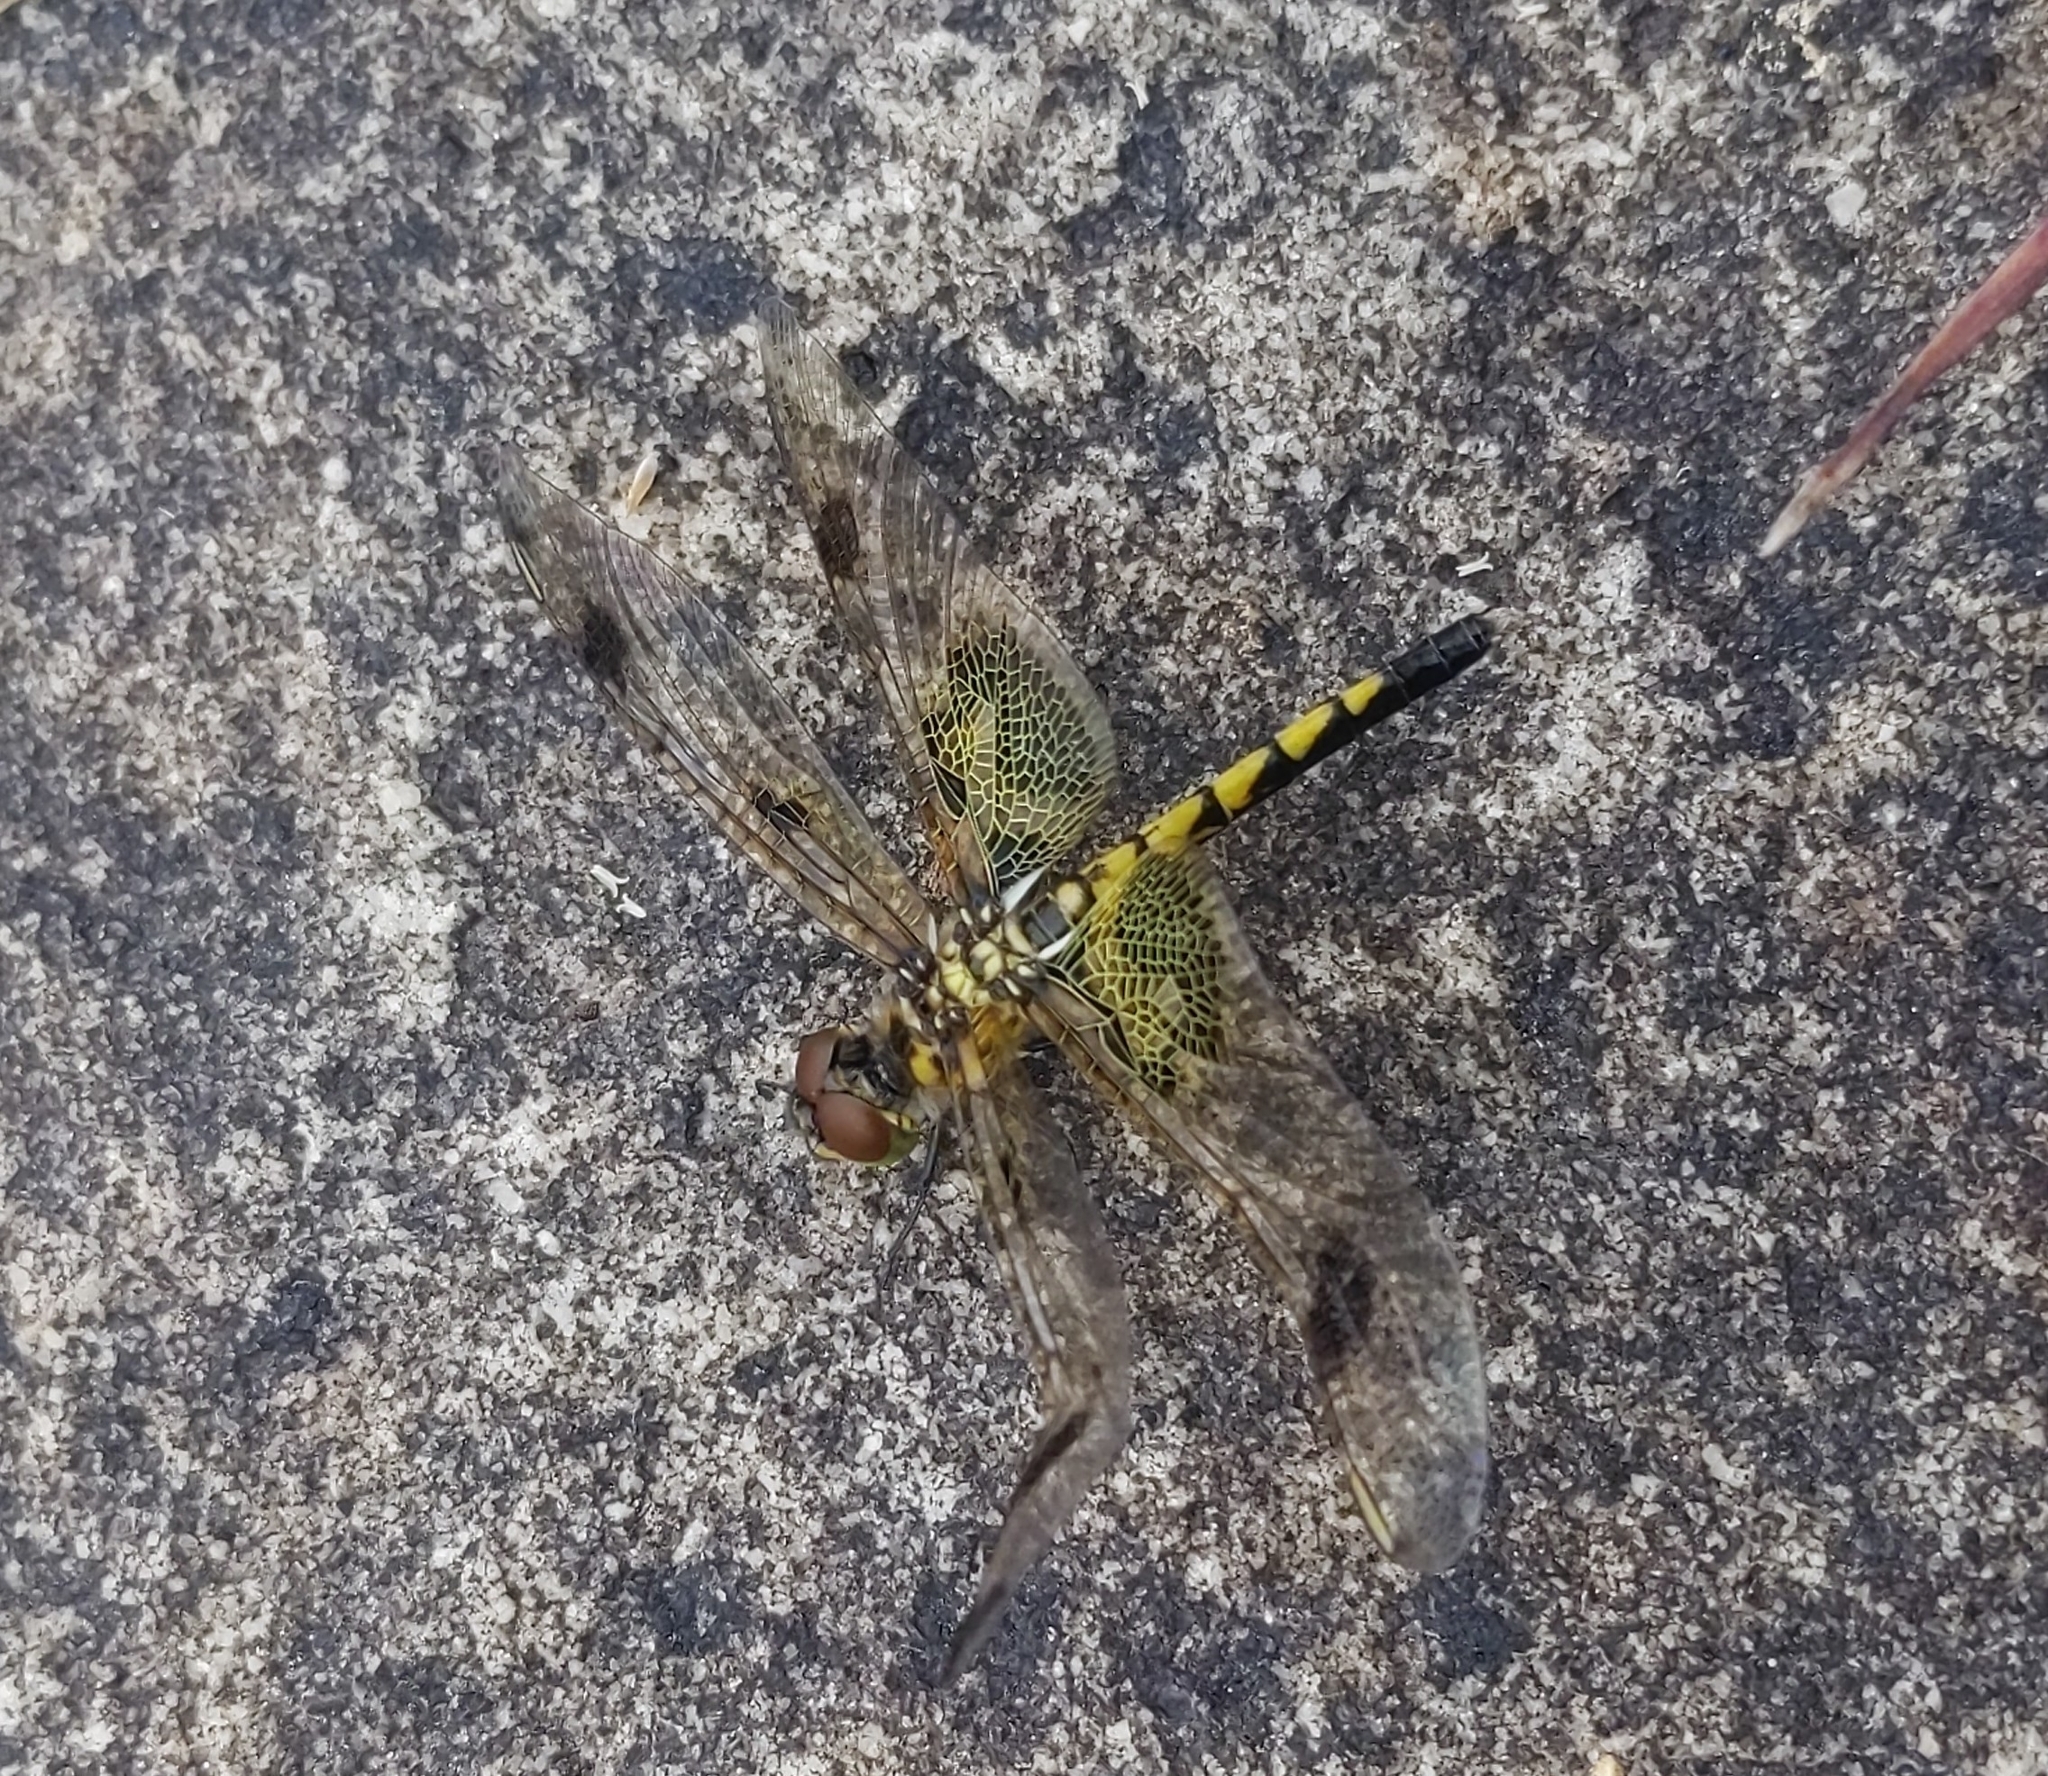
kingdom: Animalia
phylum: Arthropoda
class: Insecta
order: Odonata
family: Libellulidae
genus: Celithemis
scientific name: Celithemis elisa
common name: Calico pennant
